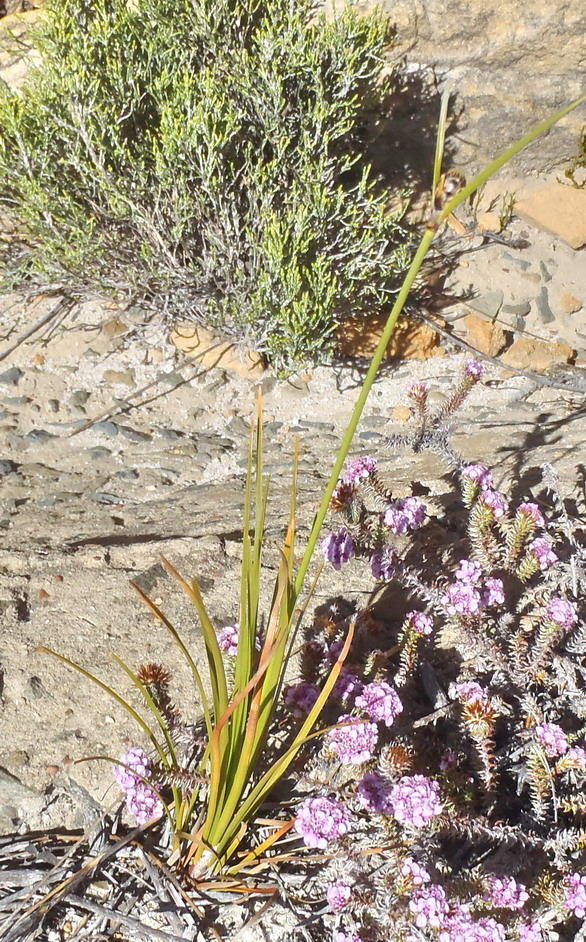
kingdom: Plantae
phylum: Tracheophyta
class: Liliopsida
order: Poales
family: Cyperaceae
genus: Ficinia
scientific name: Ficinia petrophylla
